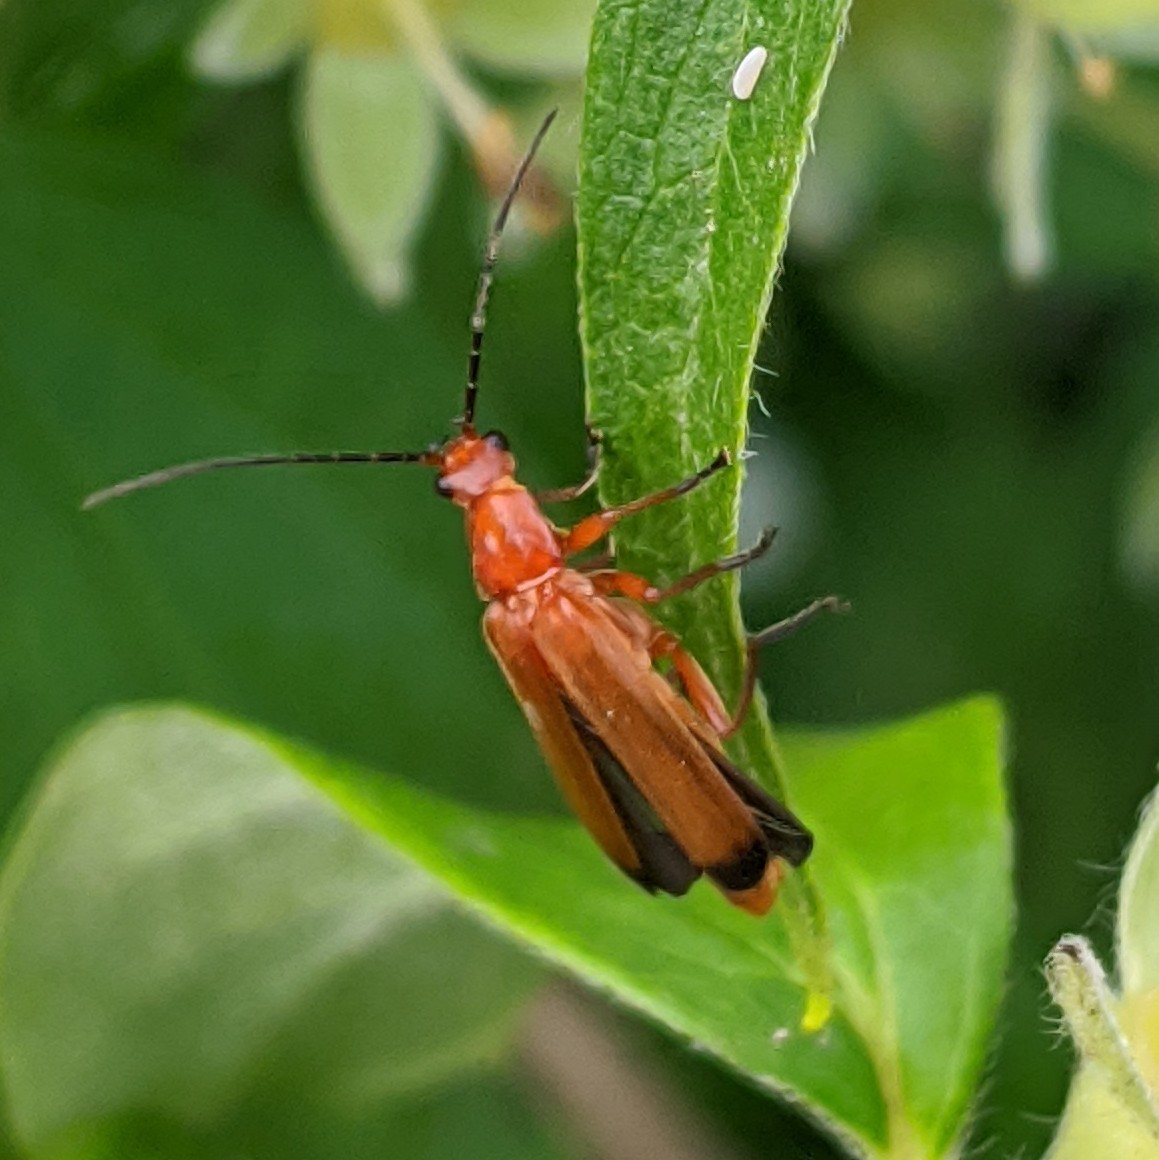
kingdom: Animalia
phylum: Arthropoda
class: Insecta
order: Coleoptera
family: Cantharidae
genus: Rhagonycha
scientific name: Rhagonycha fulva
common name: Common red soldier beetle
